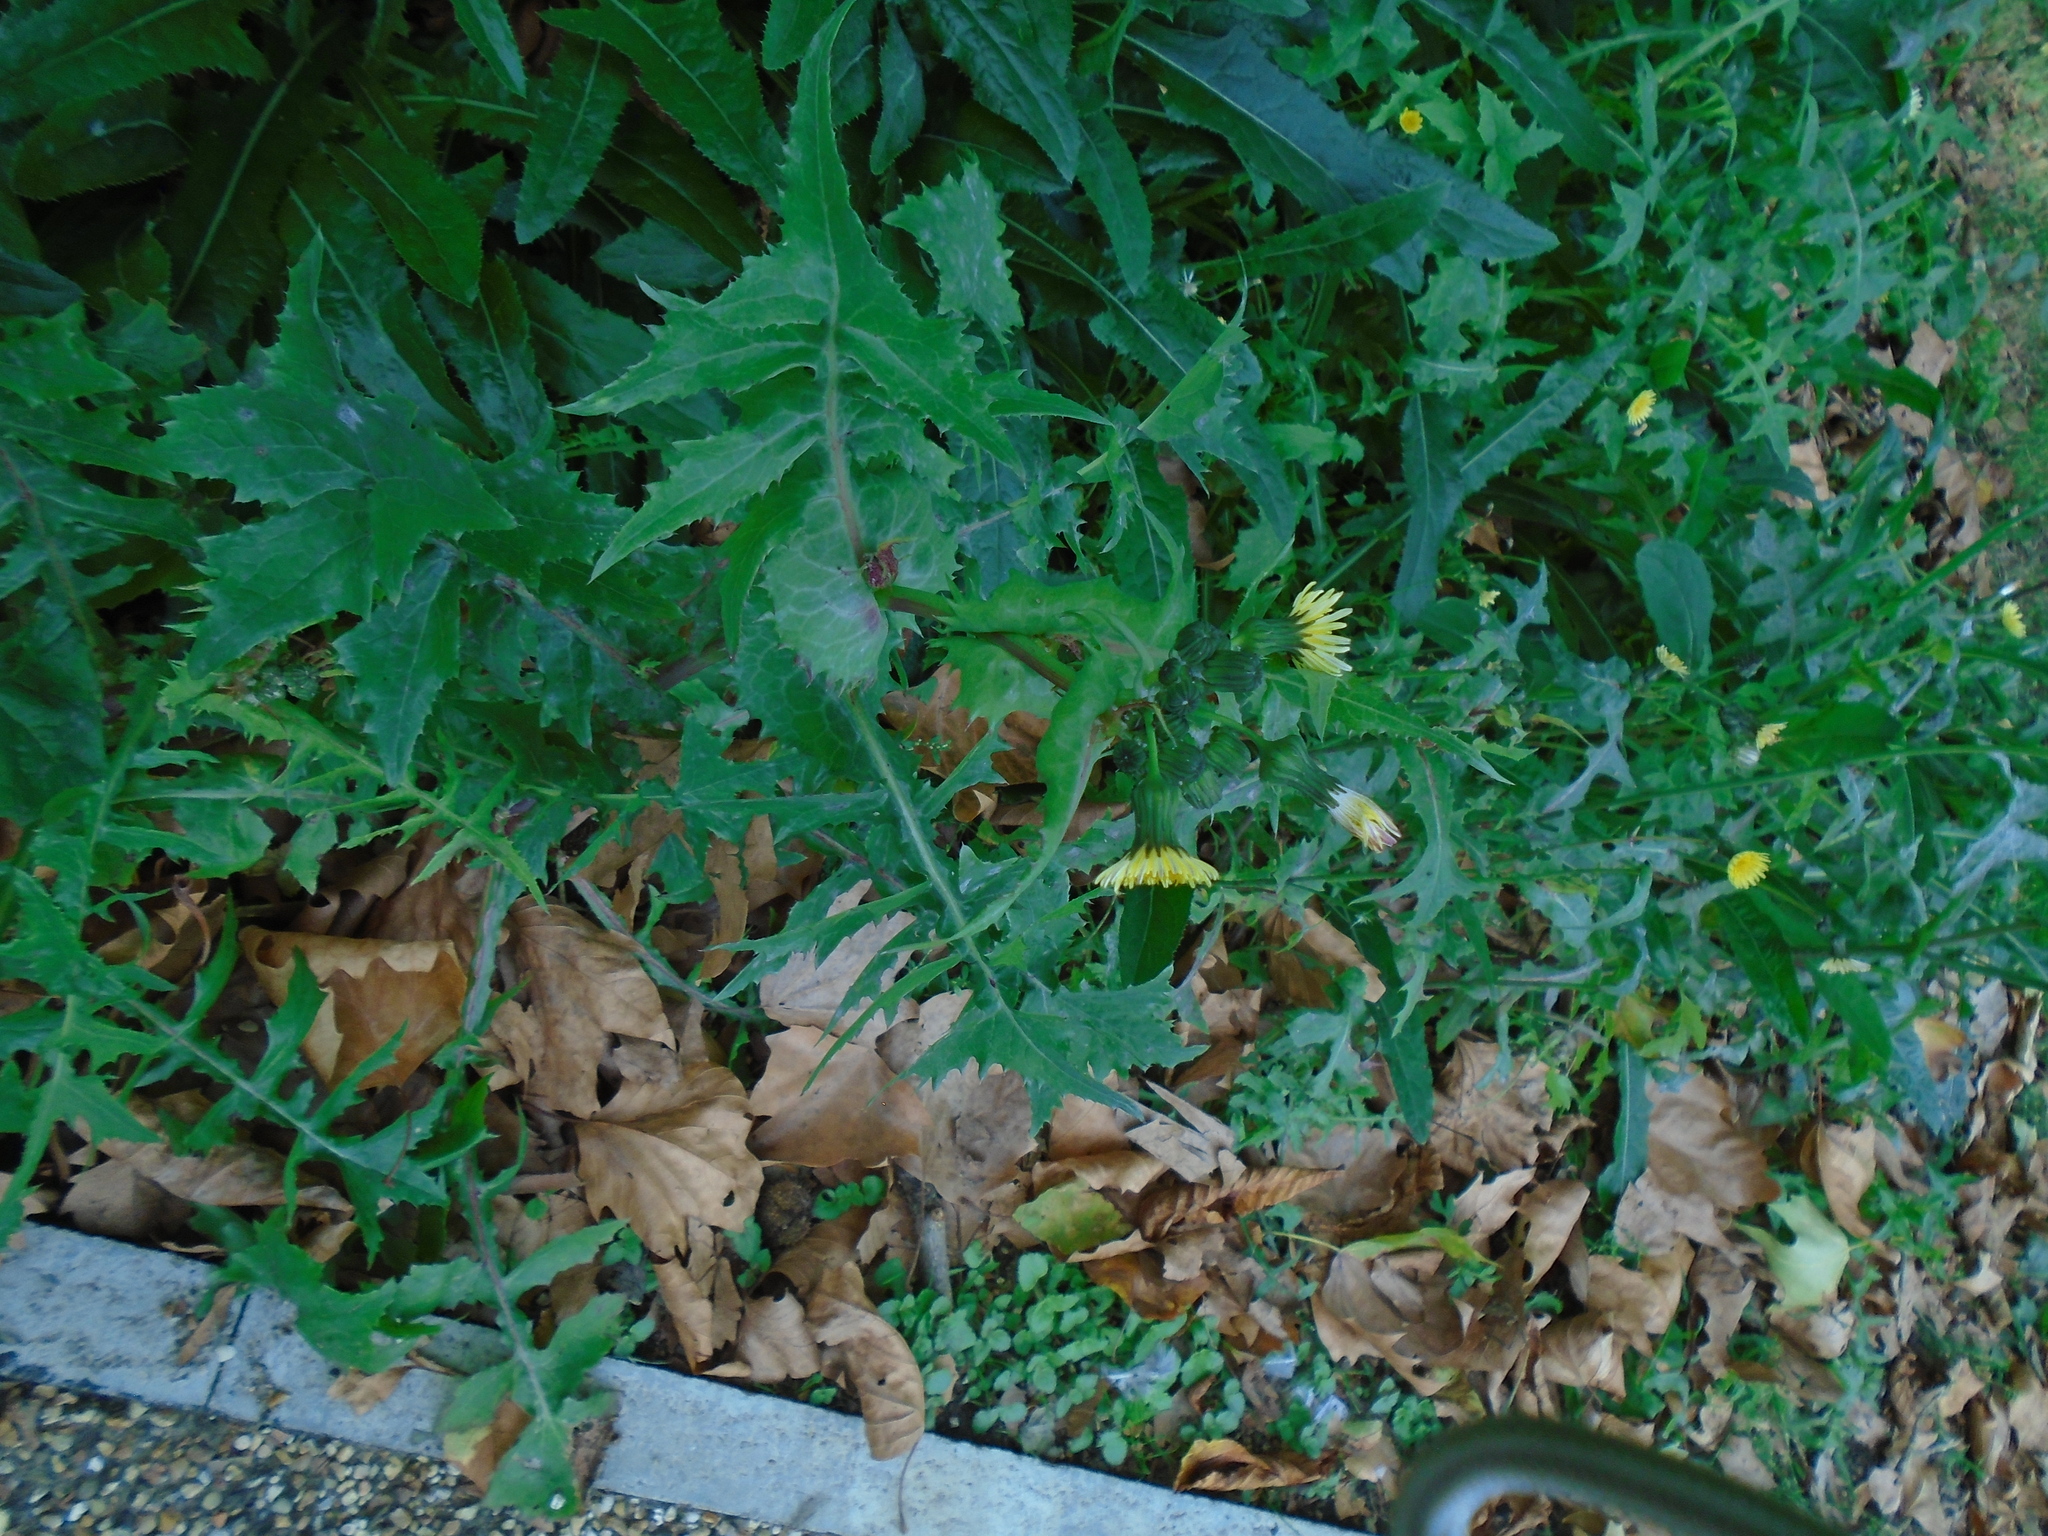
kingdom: Plantae
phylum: Tracheophyta
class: Magnoliopsida
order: Asterales
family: Asteraceae
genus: Sonchus
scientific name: Sonchus oleraceus
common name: Common sowthistle
